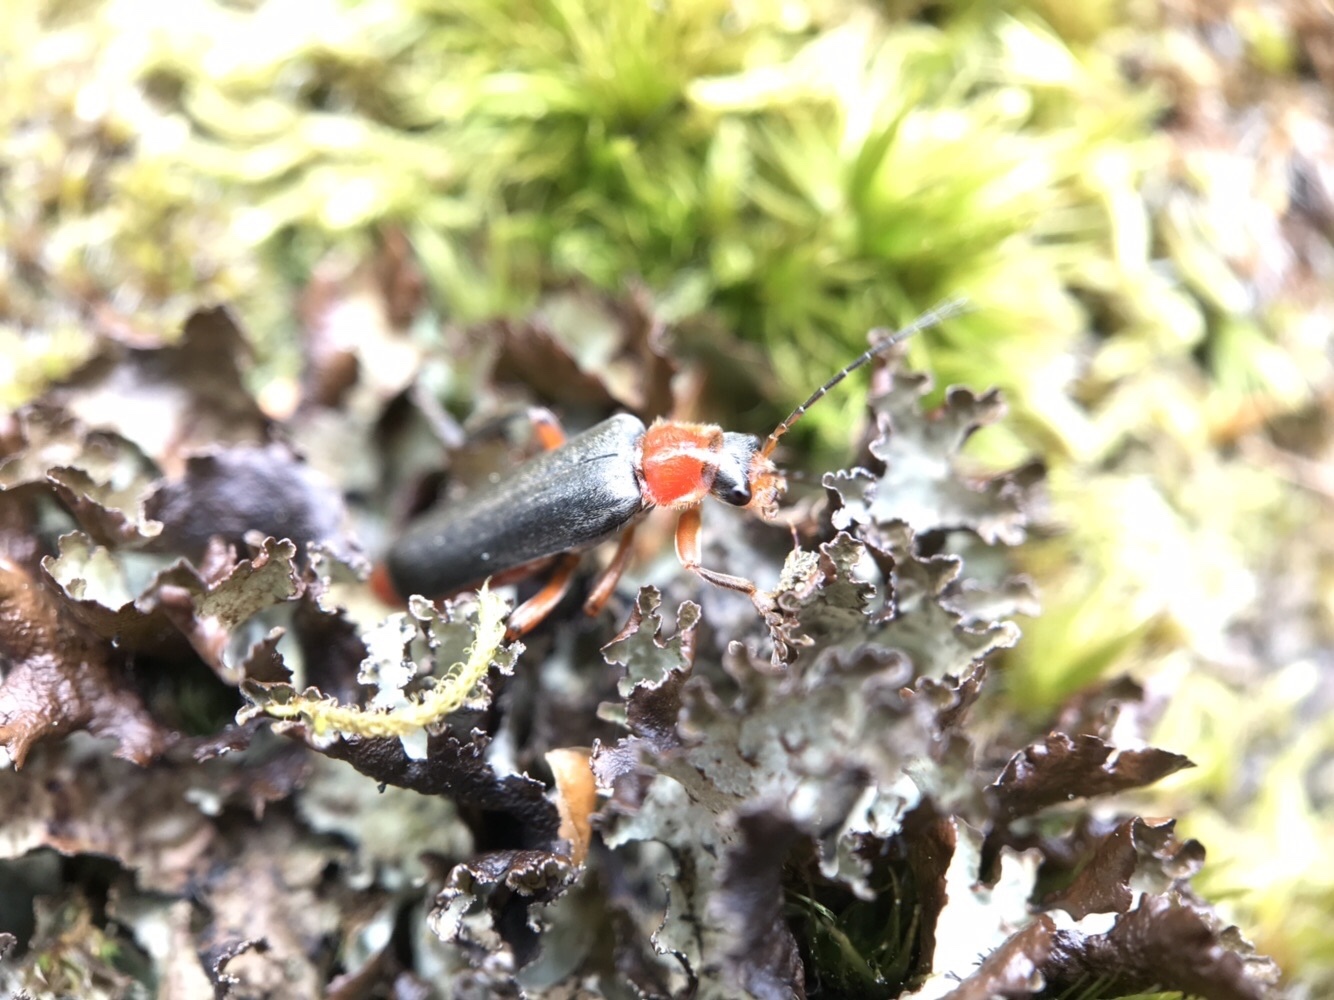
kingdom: Animalia
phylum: Arthropoda
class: Insecta
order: Coleoptera
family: Cantharidae
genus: Cantharis
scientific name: Cantharis pellucida
